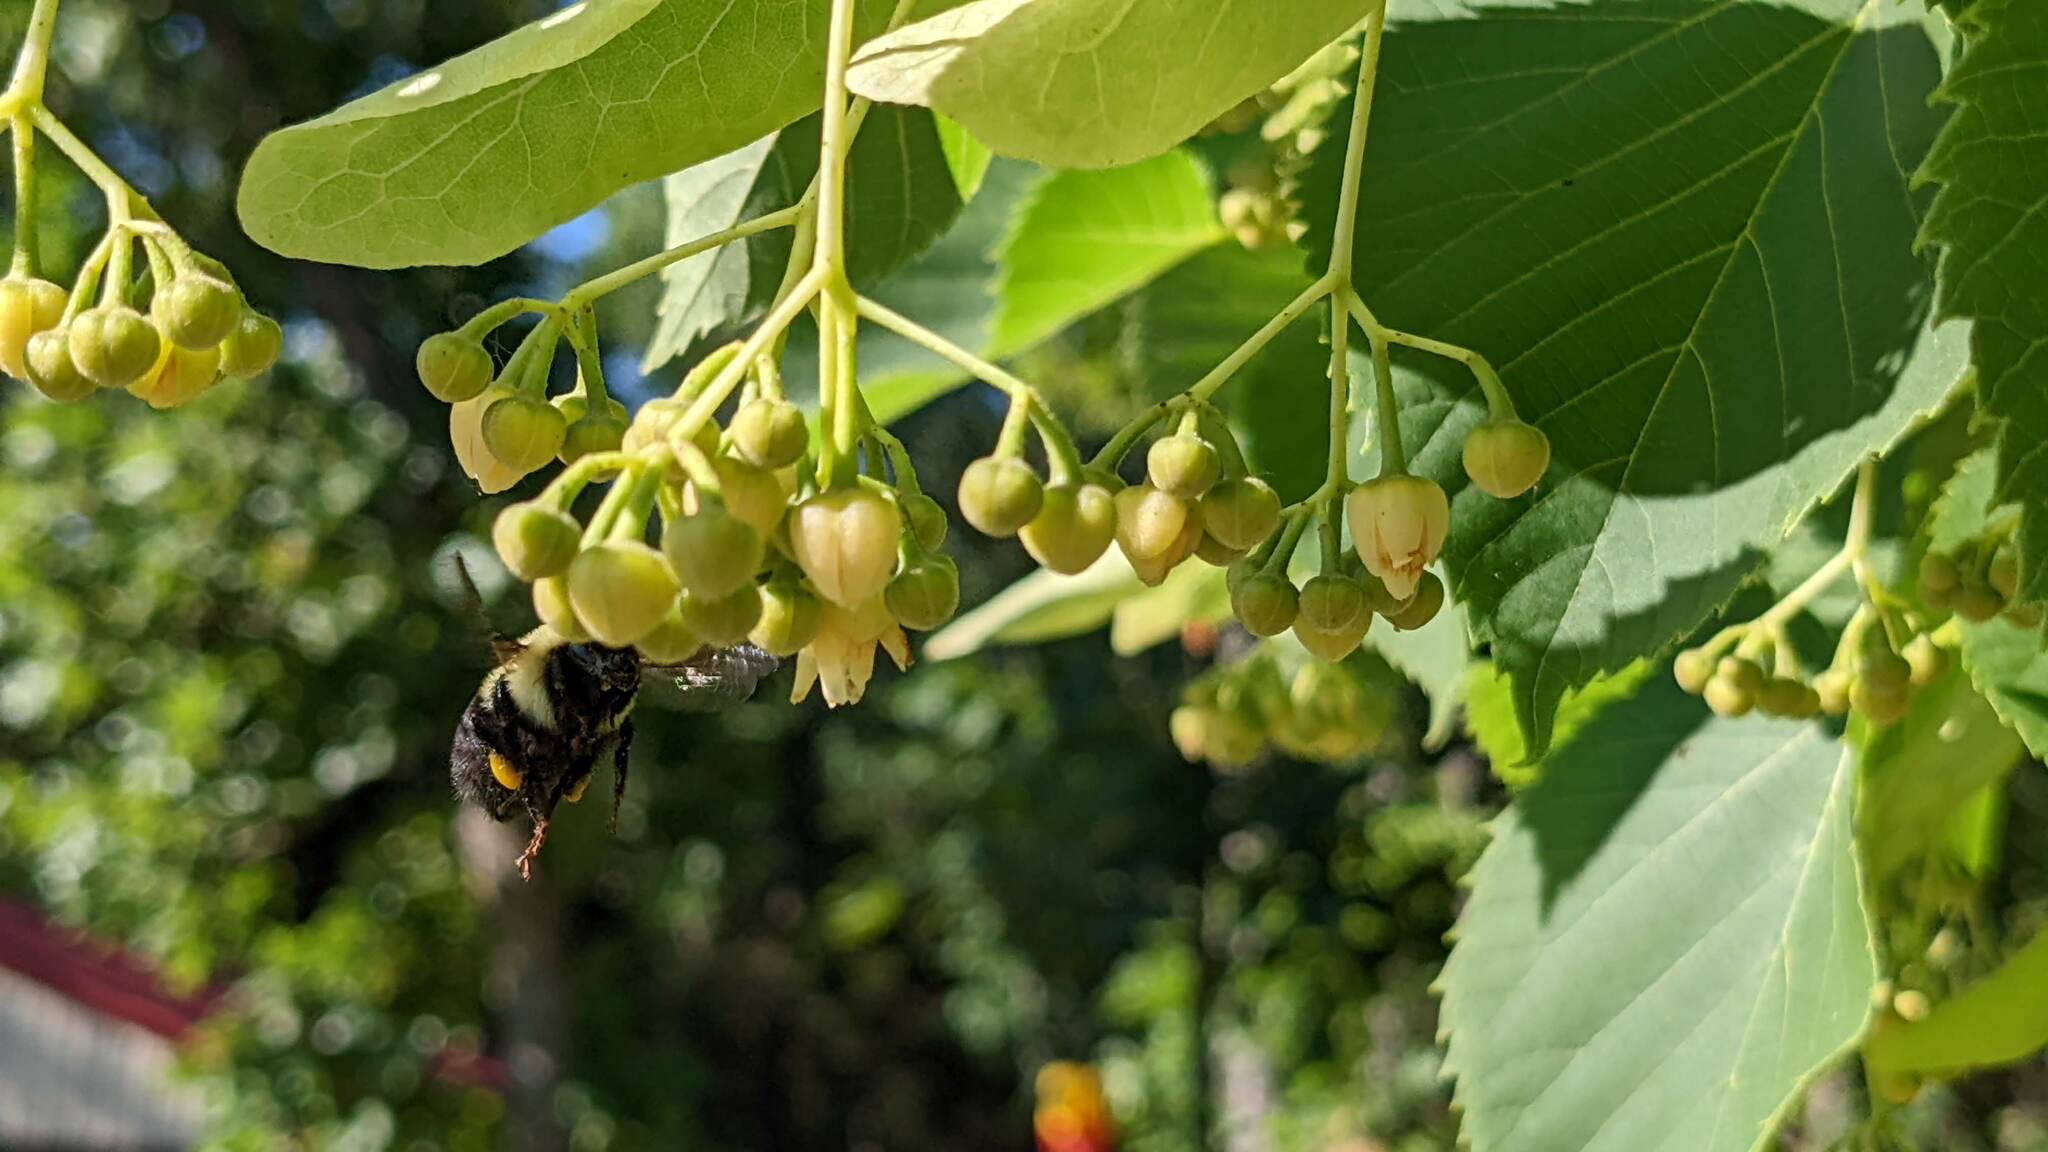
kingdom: Animalia
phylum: Arthropoda
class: Insecta
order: Hymenoptera
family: Apidae
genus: Bombus
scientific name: Bombus bimaculatus
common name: Two-spotted bumble bee
